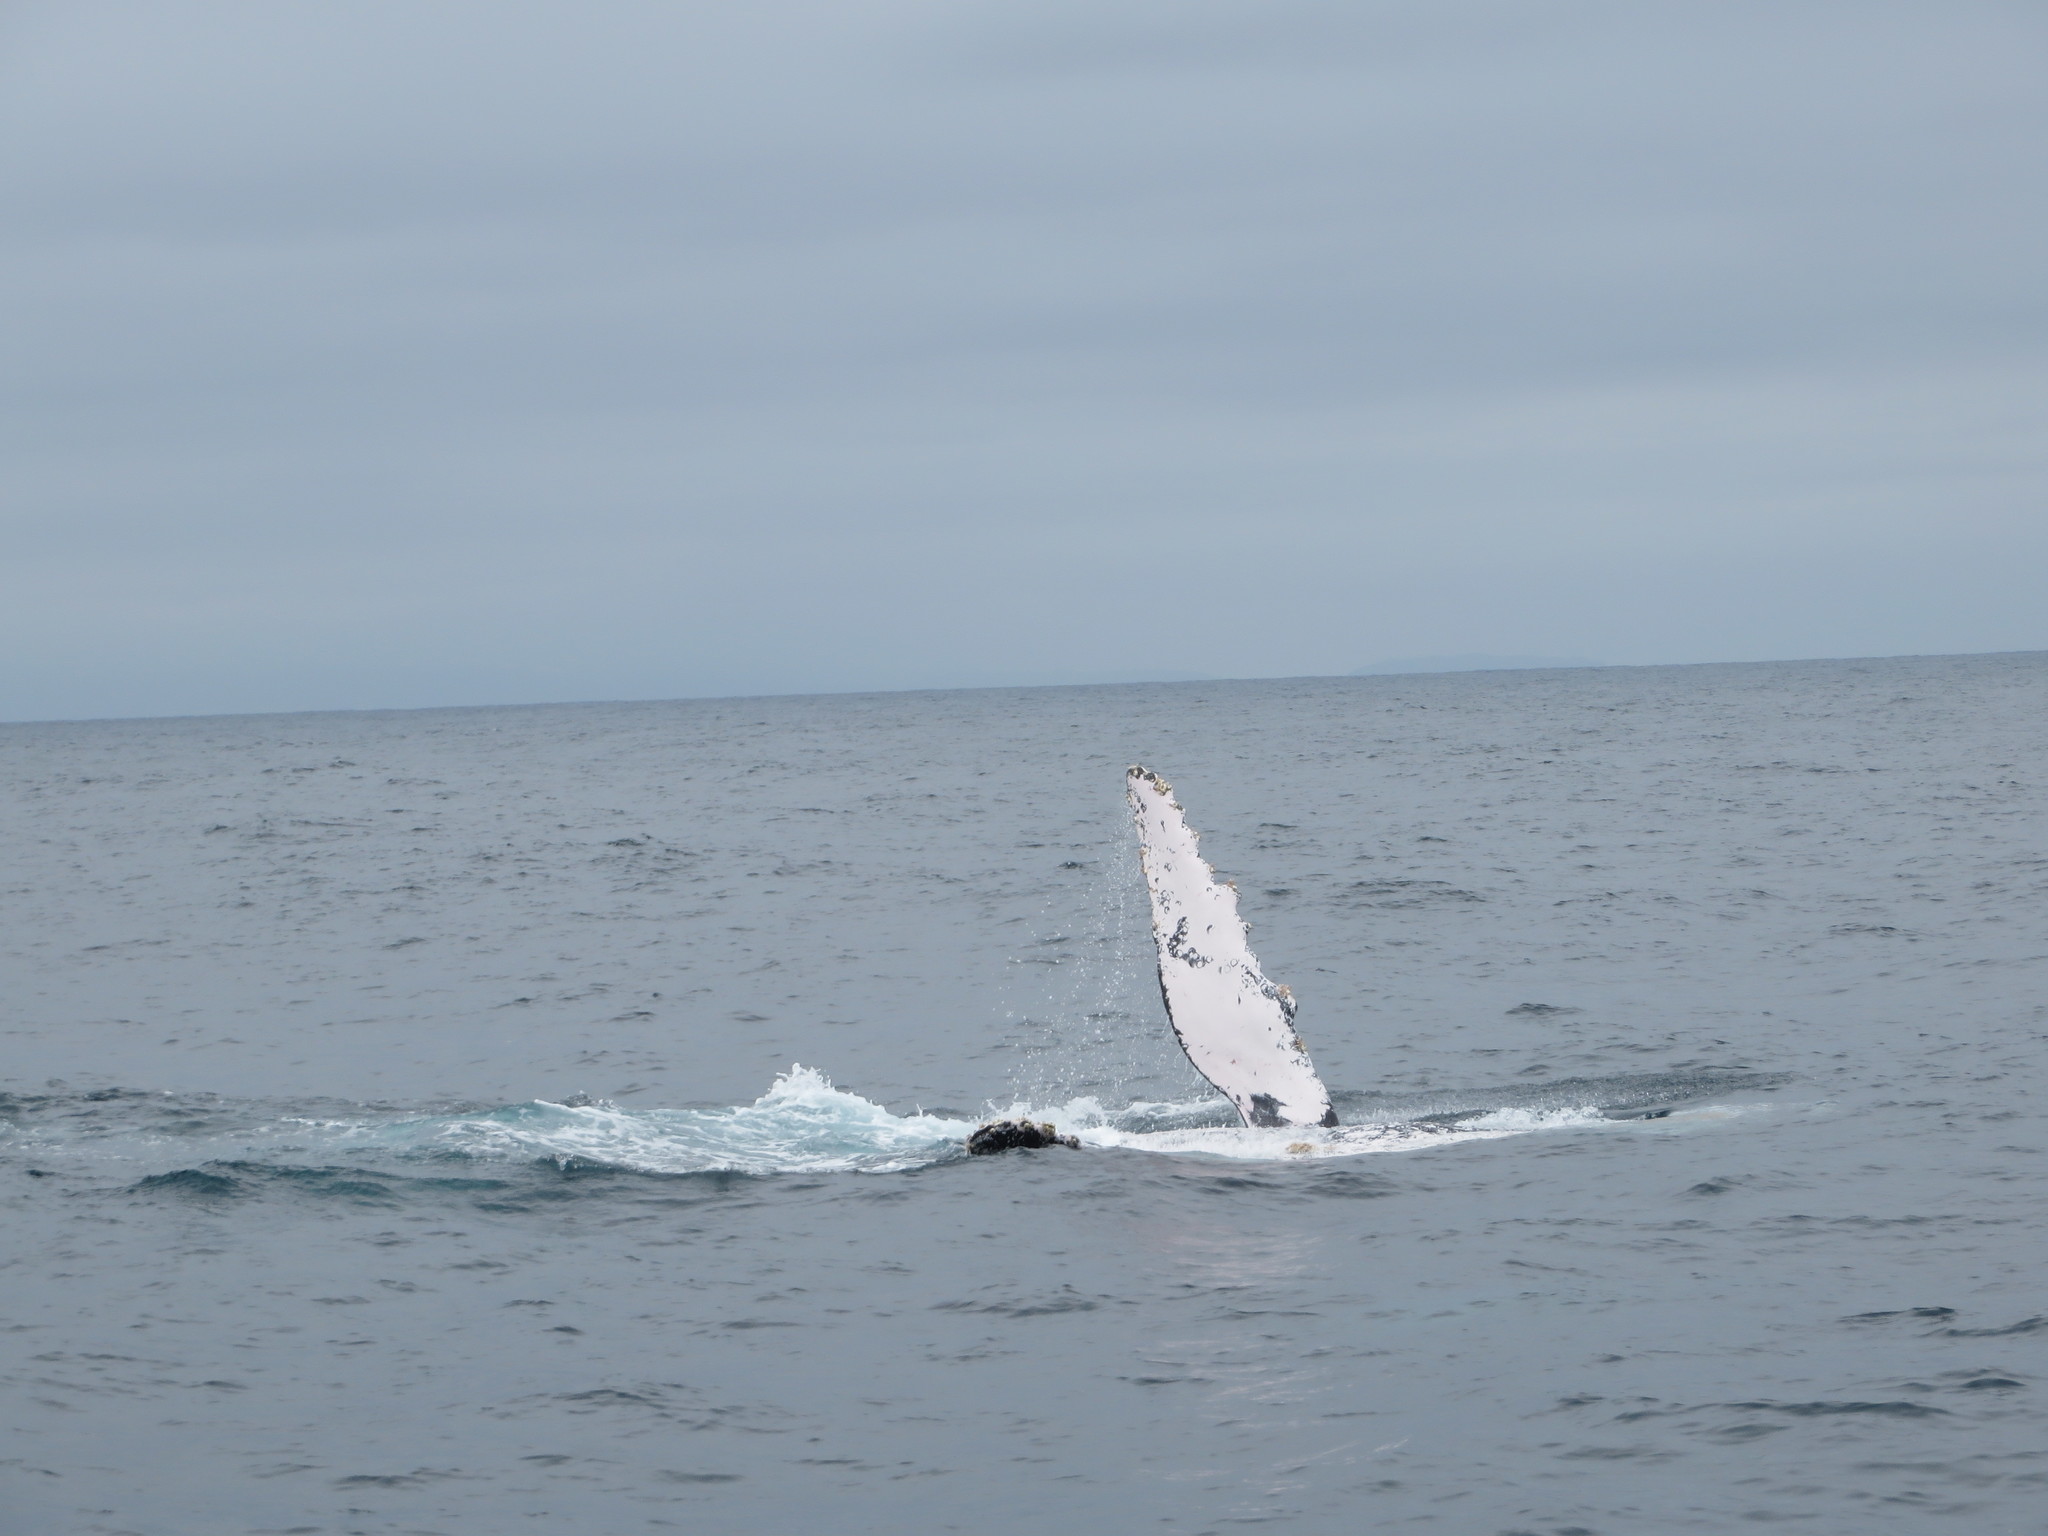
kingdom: Animalia
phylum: Chordata
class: Mammalia
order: Cetacea
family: Balaenopteridae
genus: Megaptera
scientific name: Megaptera novaeangliae
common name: Humpback whale
